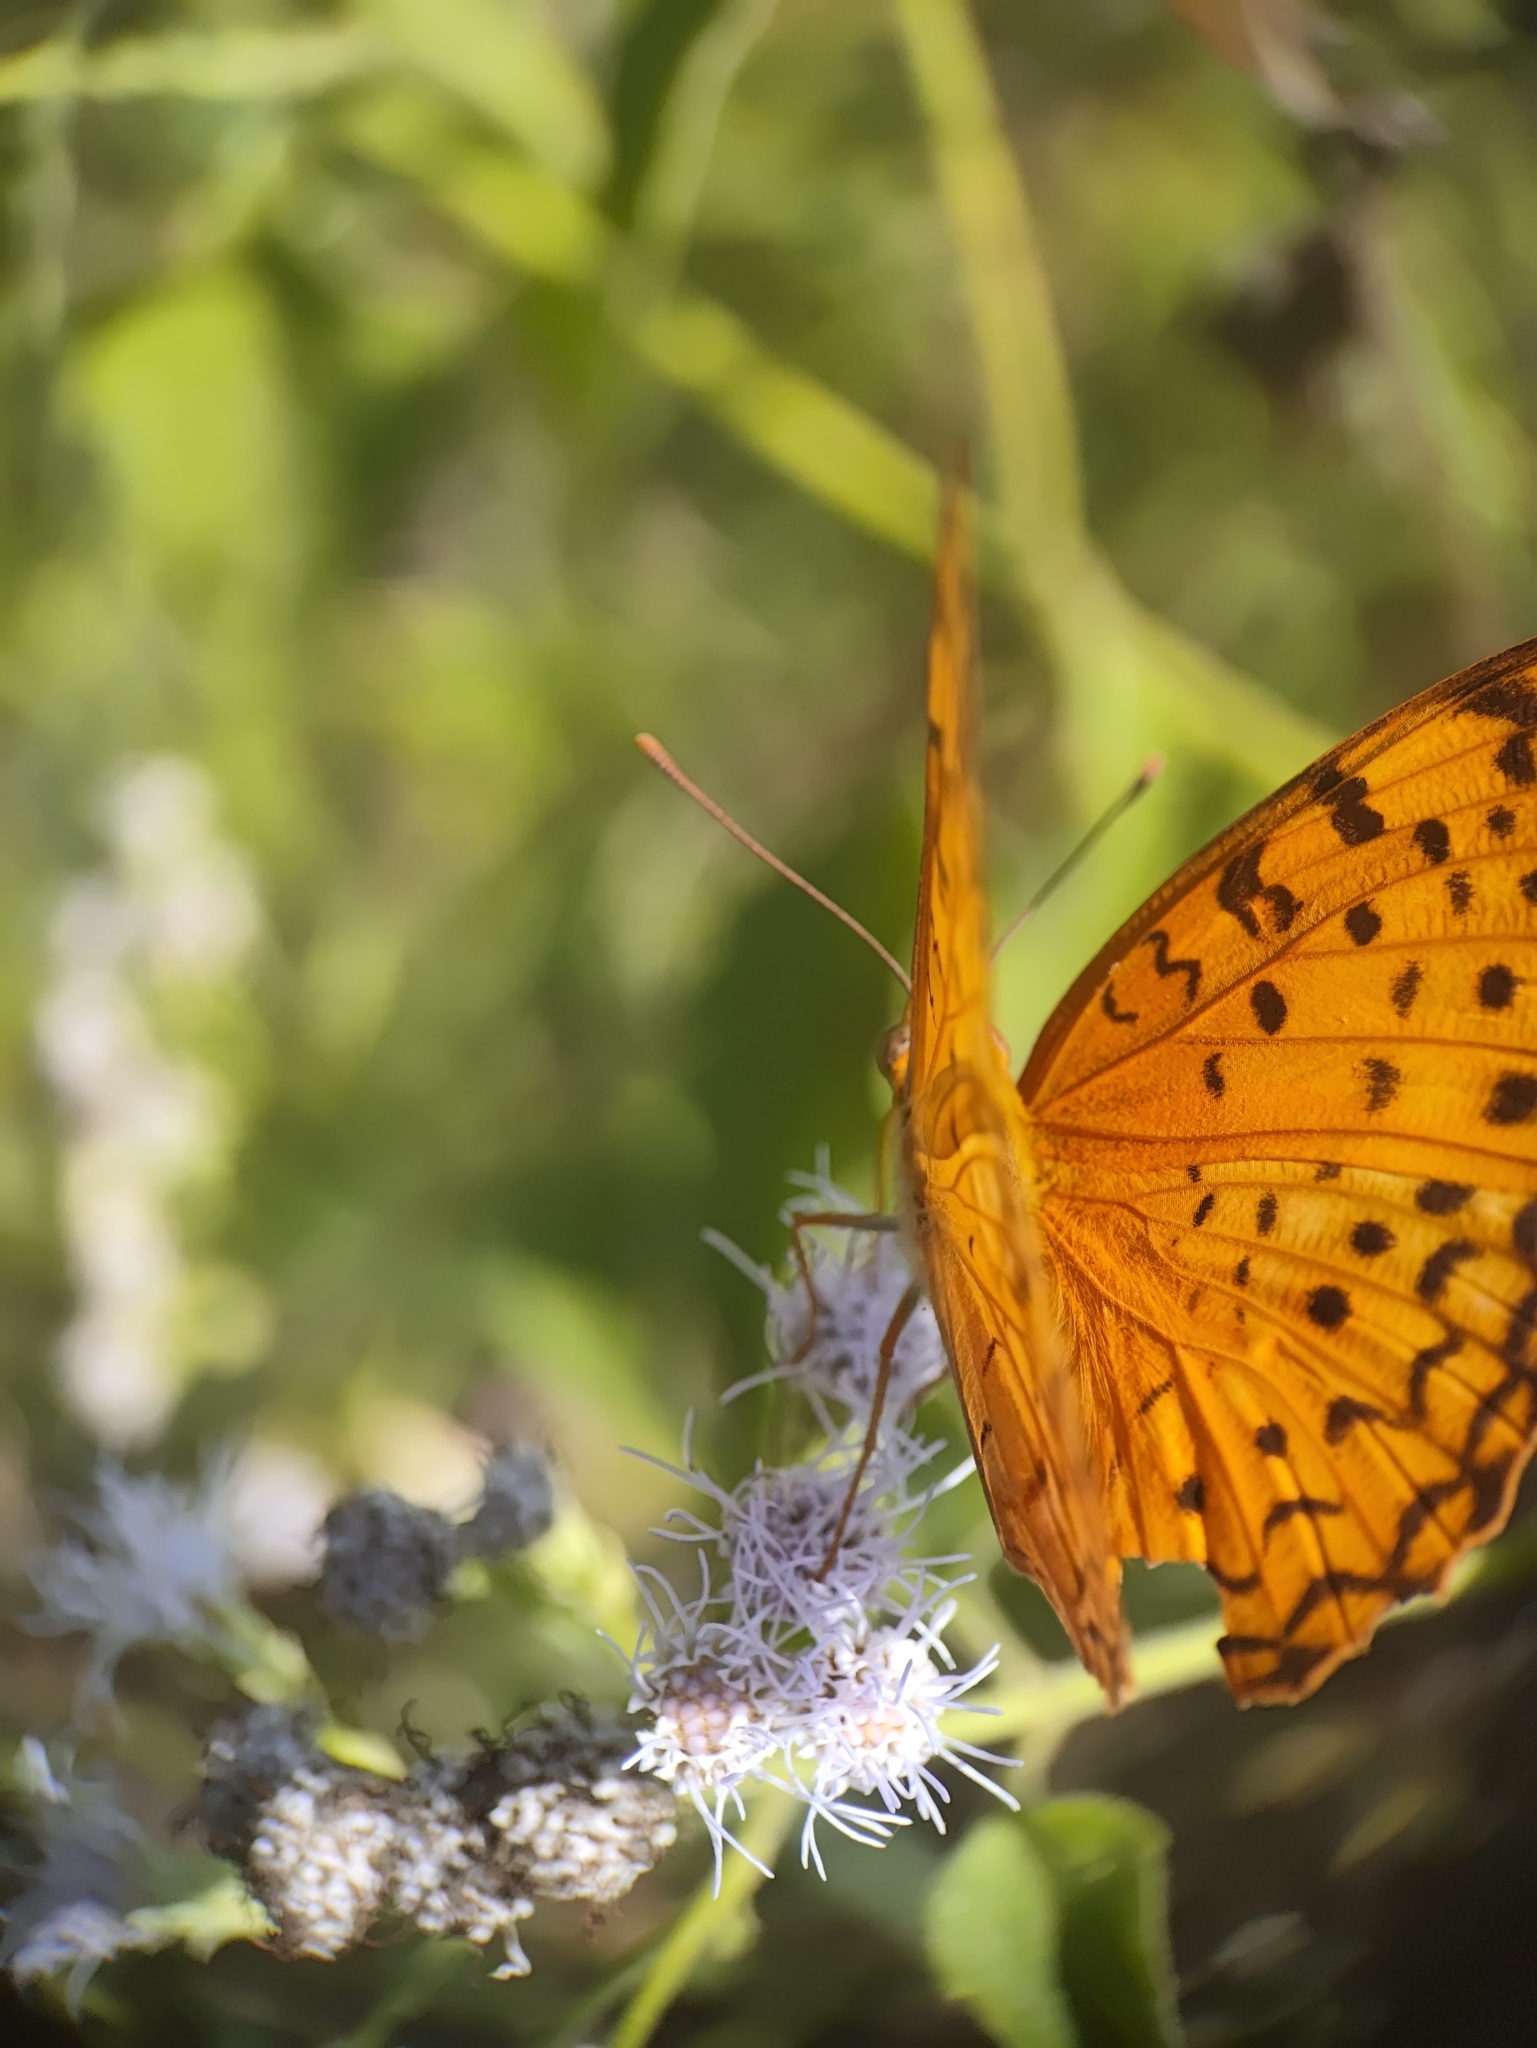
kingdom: Animalia
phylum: Arthropoda
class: Insecta
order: Lepidoptera
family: Nymphalidae
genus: Phalanta
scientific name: Phalanta phalantha
